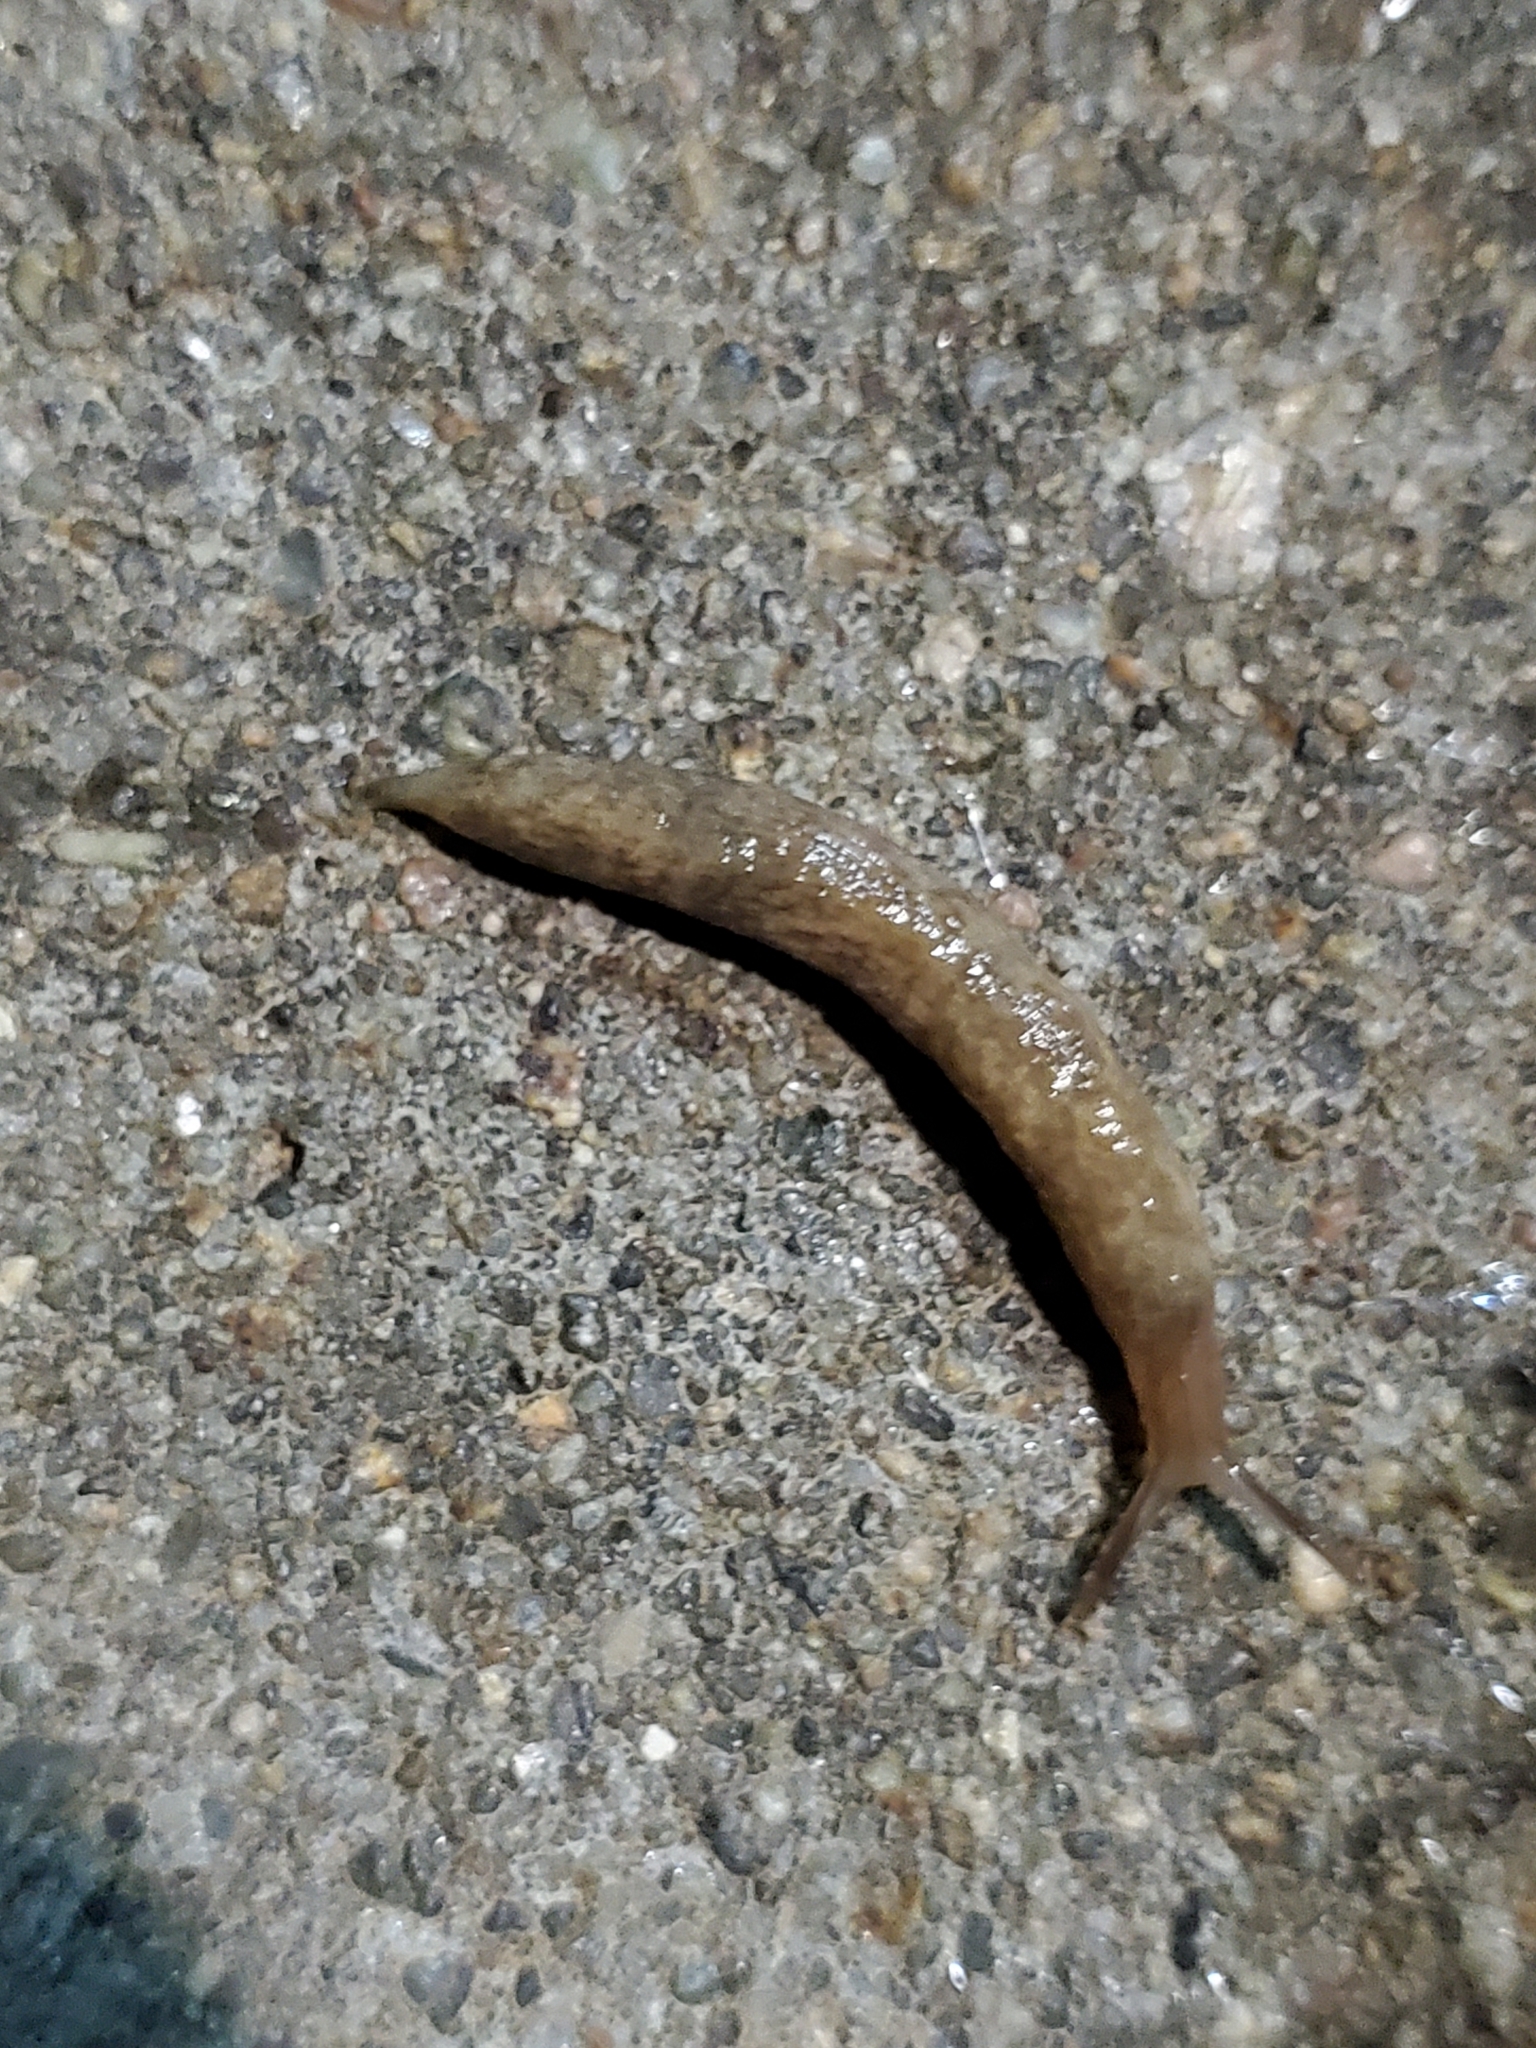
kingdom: Animalia
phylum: Mollusca
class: Gastropoda
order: Stylommatophora
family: Agriolimacidae
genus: Deroceras
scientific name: Deroceras reticulatum
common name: Gray field slug
